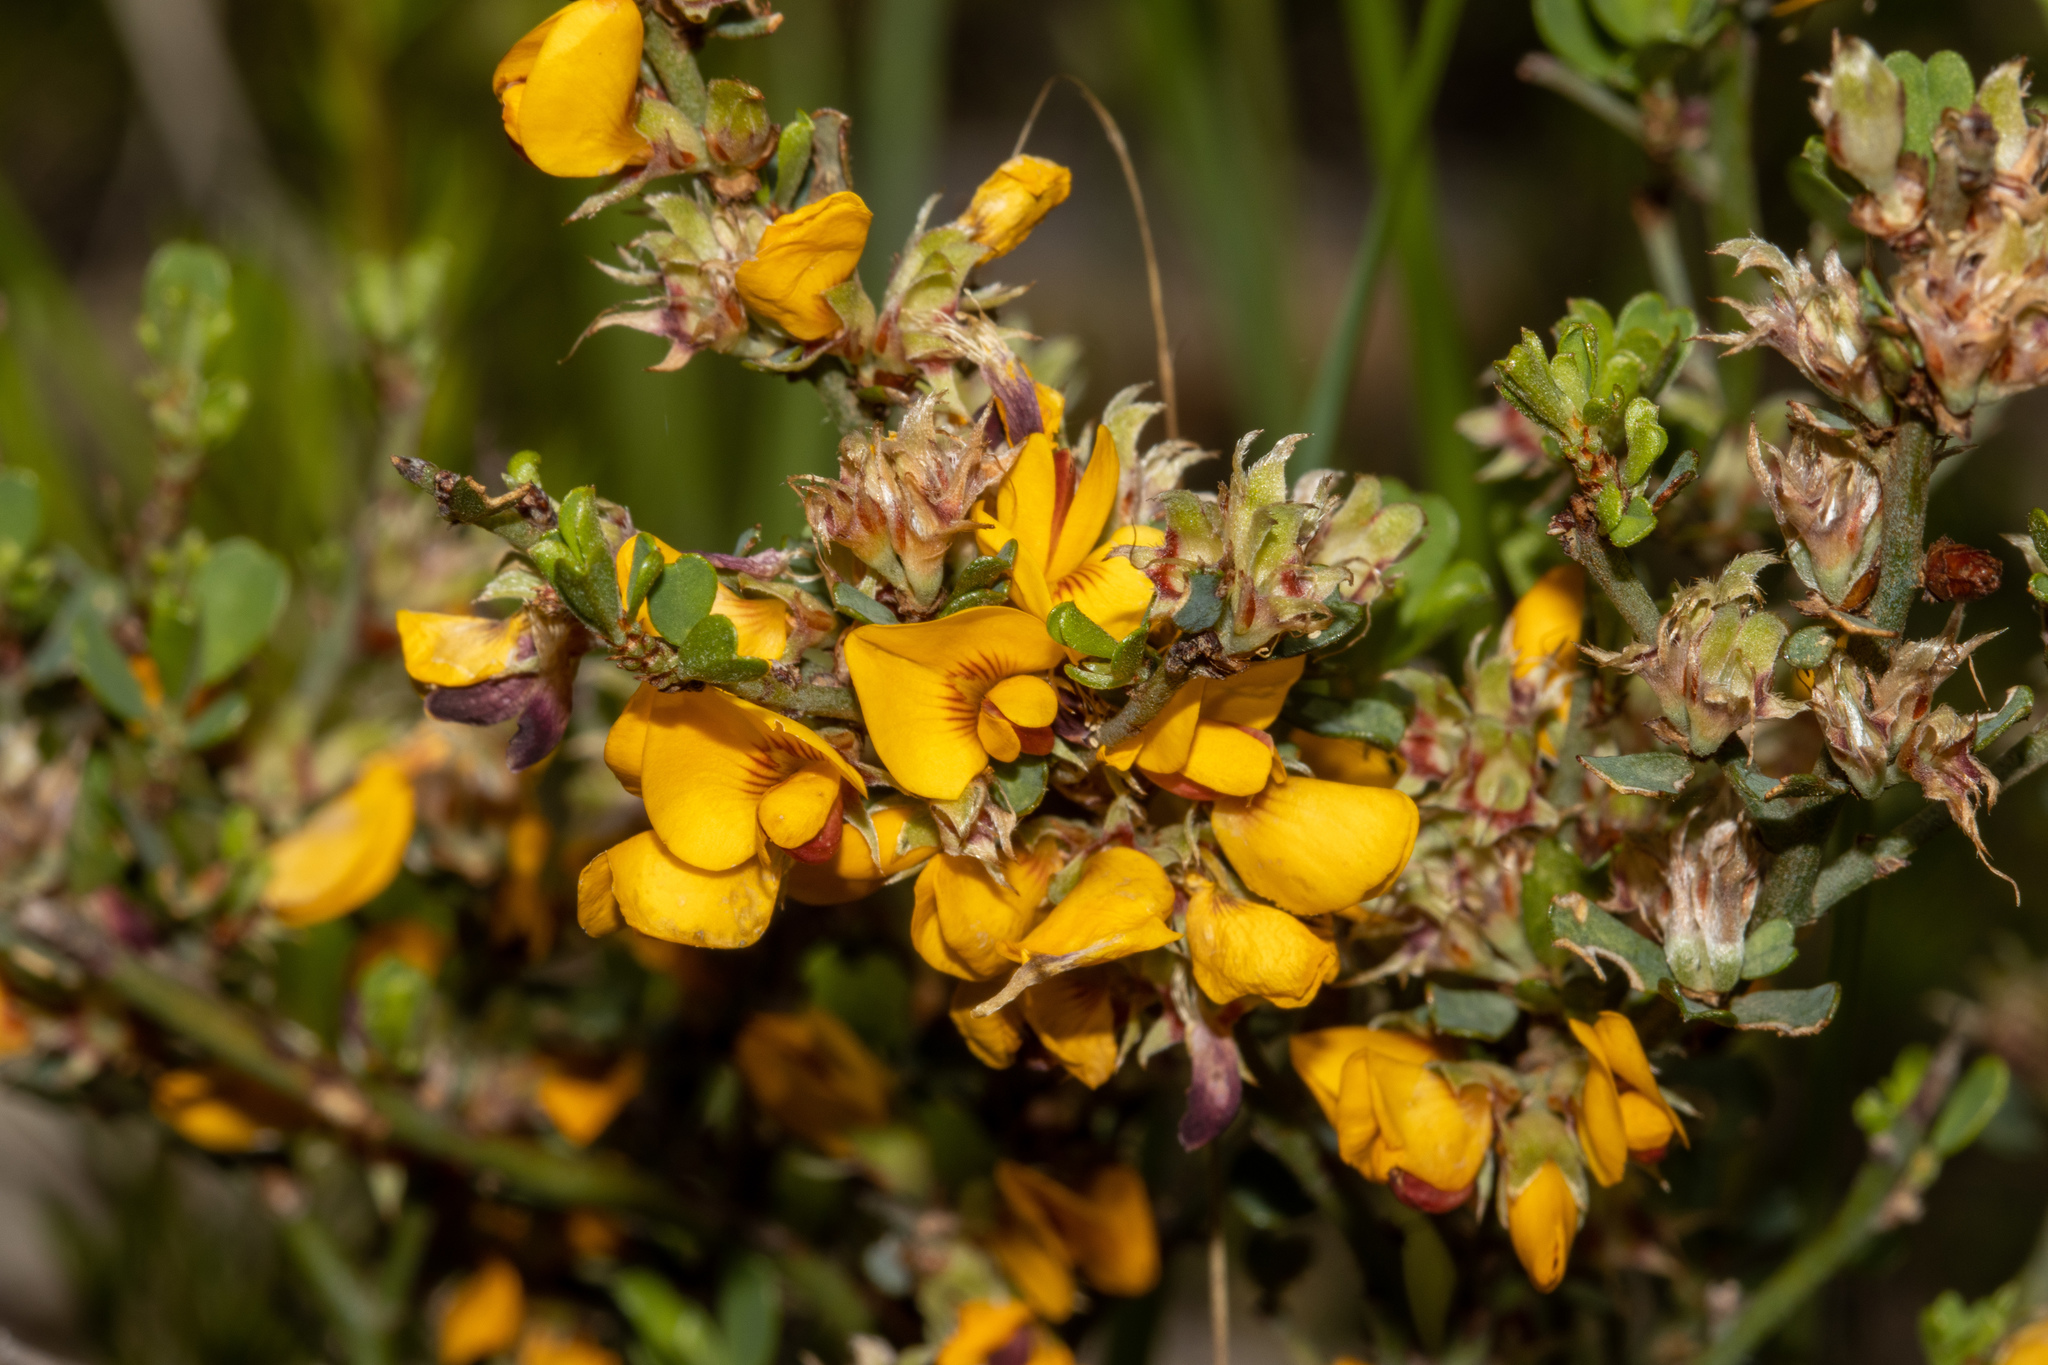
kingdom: Plantae
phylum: Tracheophyta
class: Magnoliopsida
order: Fabales
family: Fabaceae
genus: Pultenaea
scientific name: Pultenaea largiflorens
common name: Twiggy bush-pea
